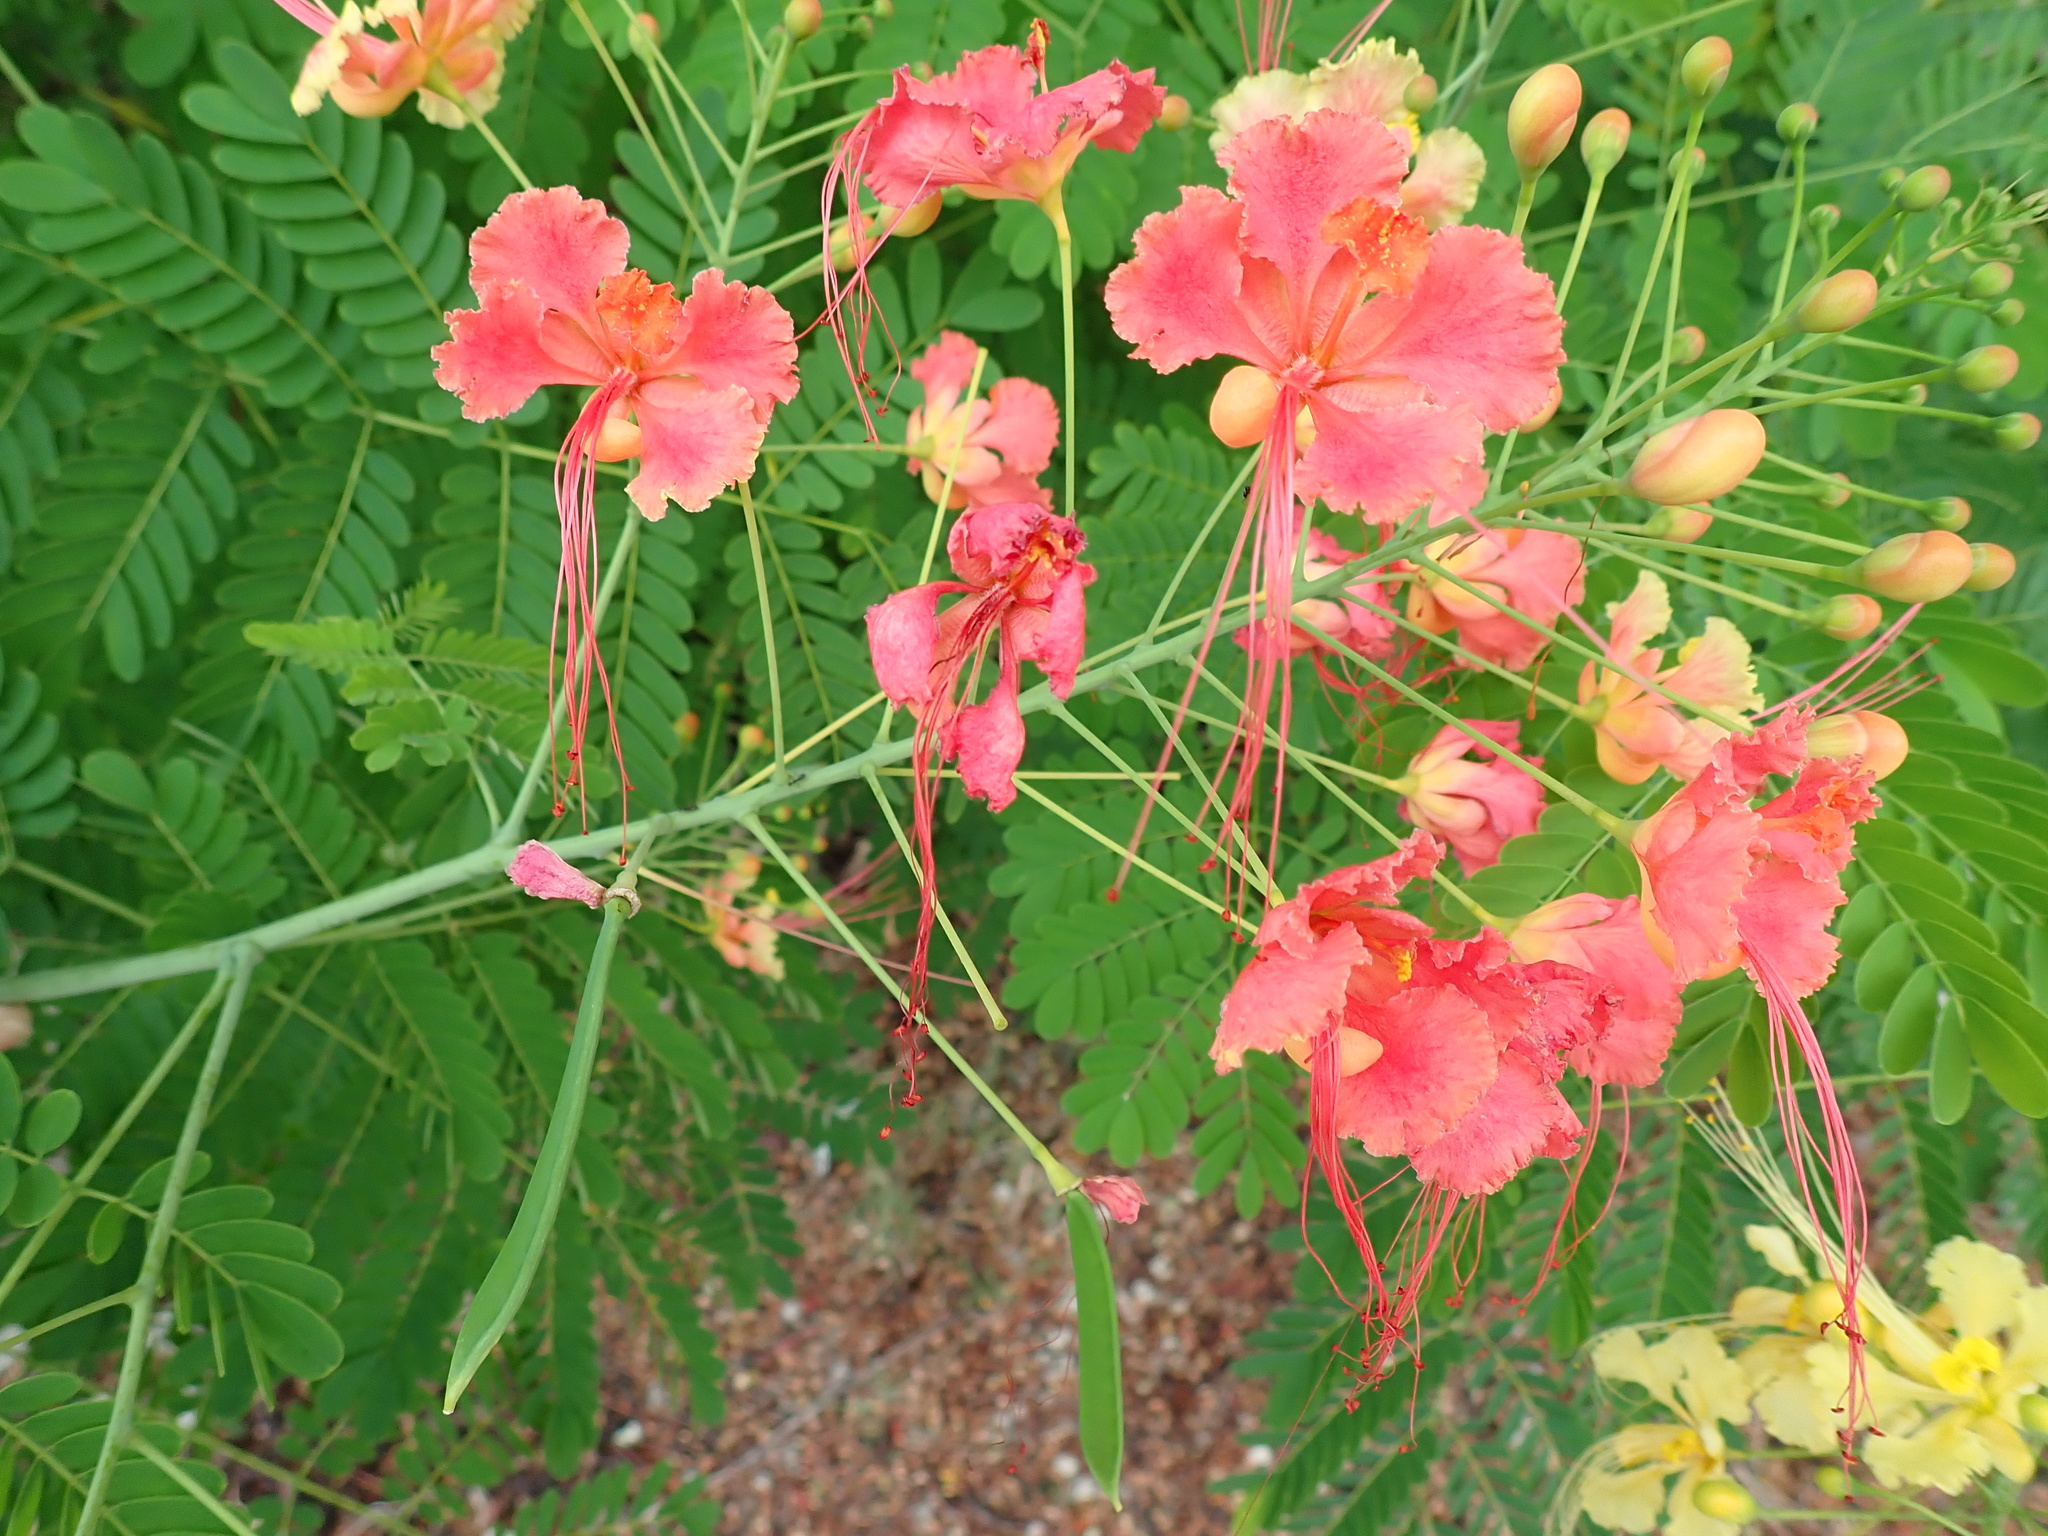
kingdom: Plantae
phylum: Tracheophyta
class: Magnoliopsida
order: Fabales
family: Fabaceae
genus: Caesalpinia
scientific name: Caesalpinia pulcherrima
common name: Pride-of-barbados
